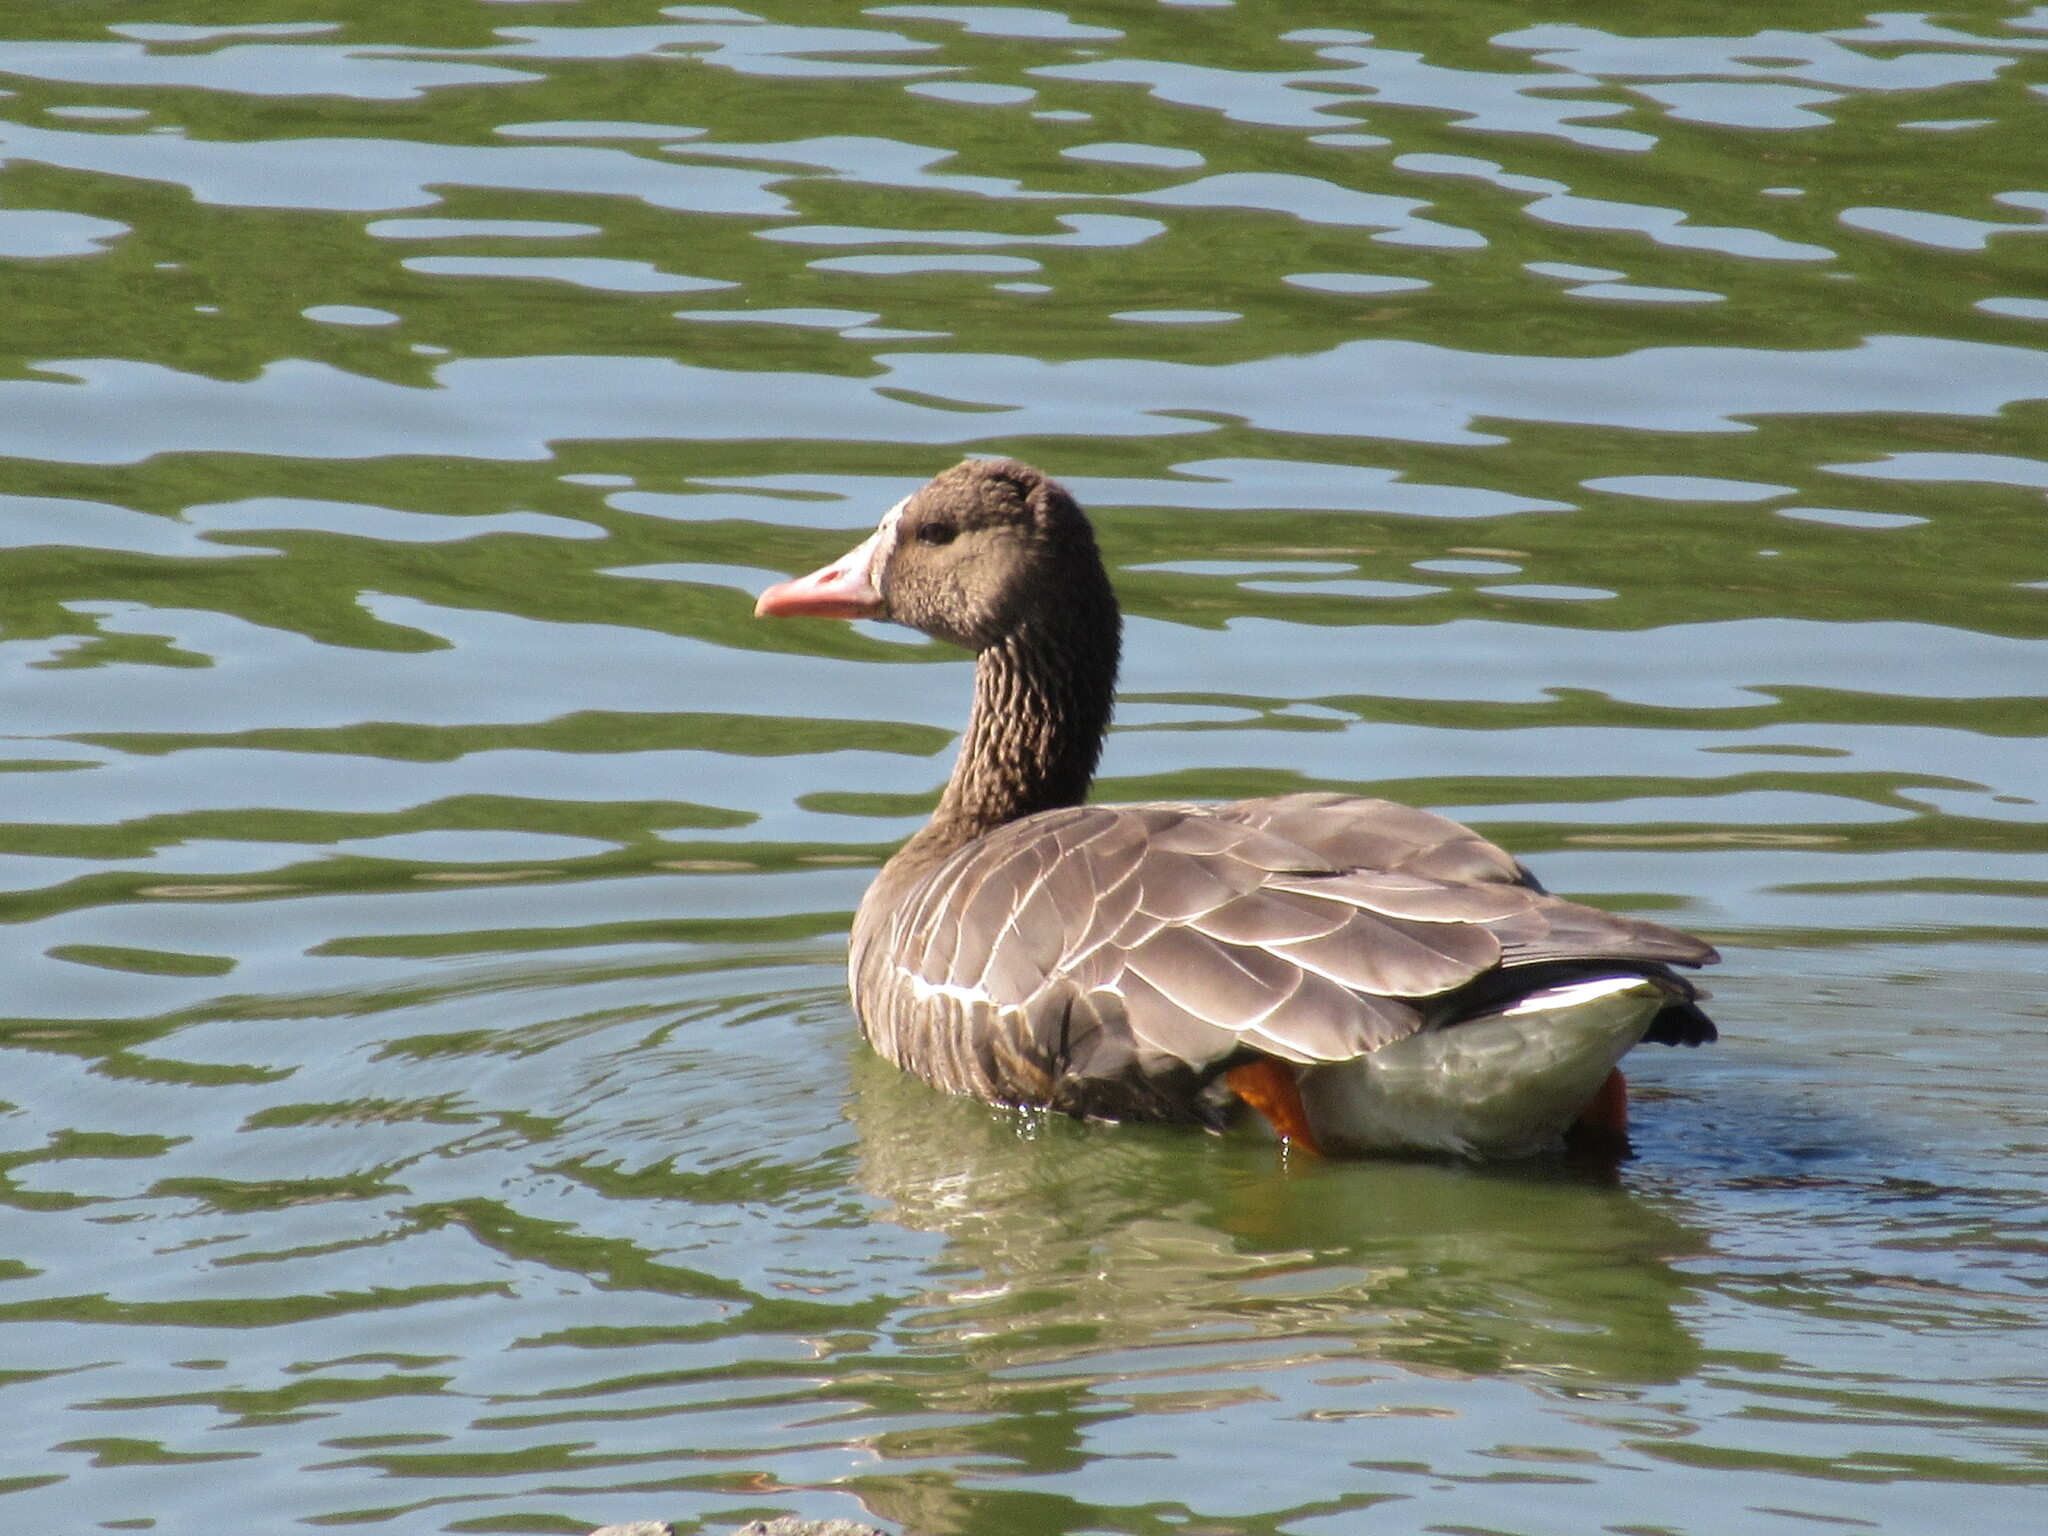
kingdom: Animalia
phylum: Chordata
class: Aves
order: Anseriformes
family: Anatidae
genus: Anser
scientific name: Anser albifrons
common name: Greater white-fronted goose
